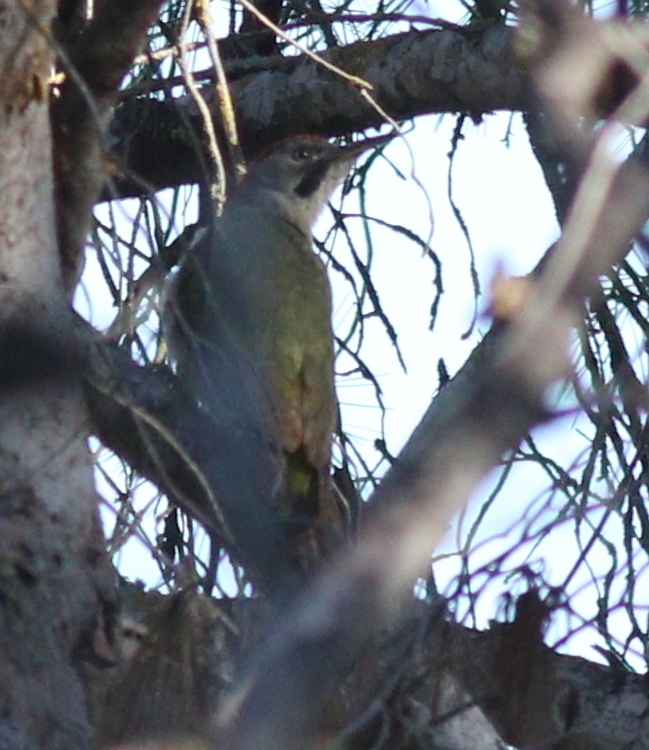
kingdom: Animalia
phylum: Chordata
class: Aves
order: Piciformes
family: Picidae
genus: Picus
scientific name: Picus sharpei
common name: Iberian green woodpecker
